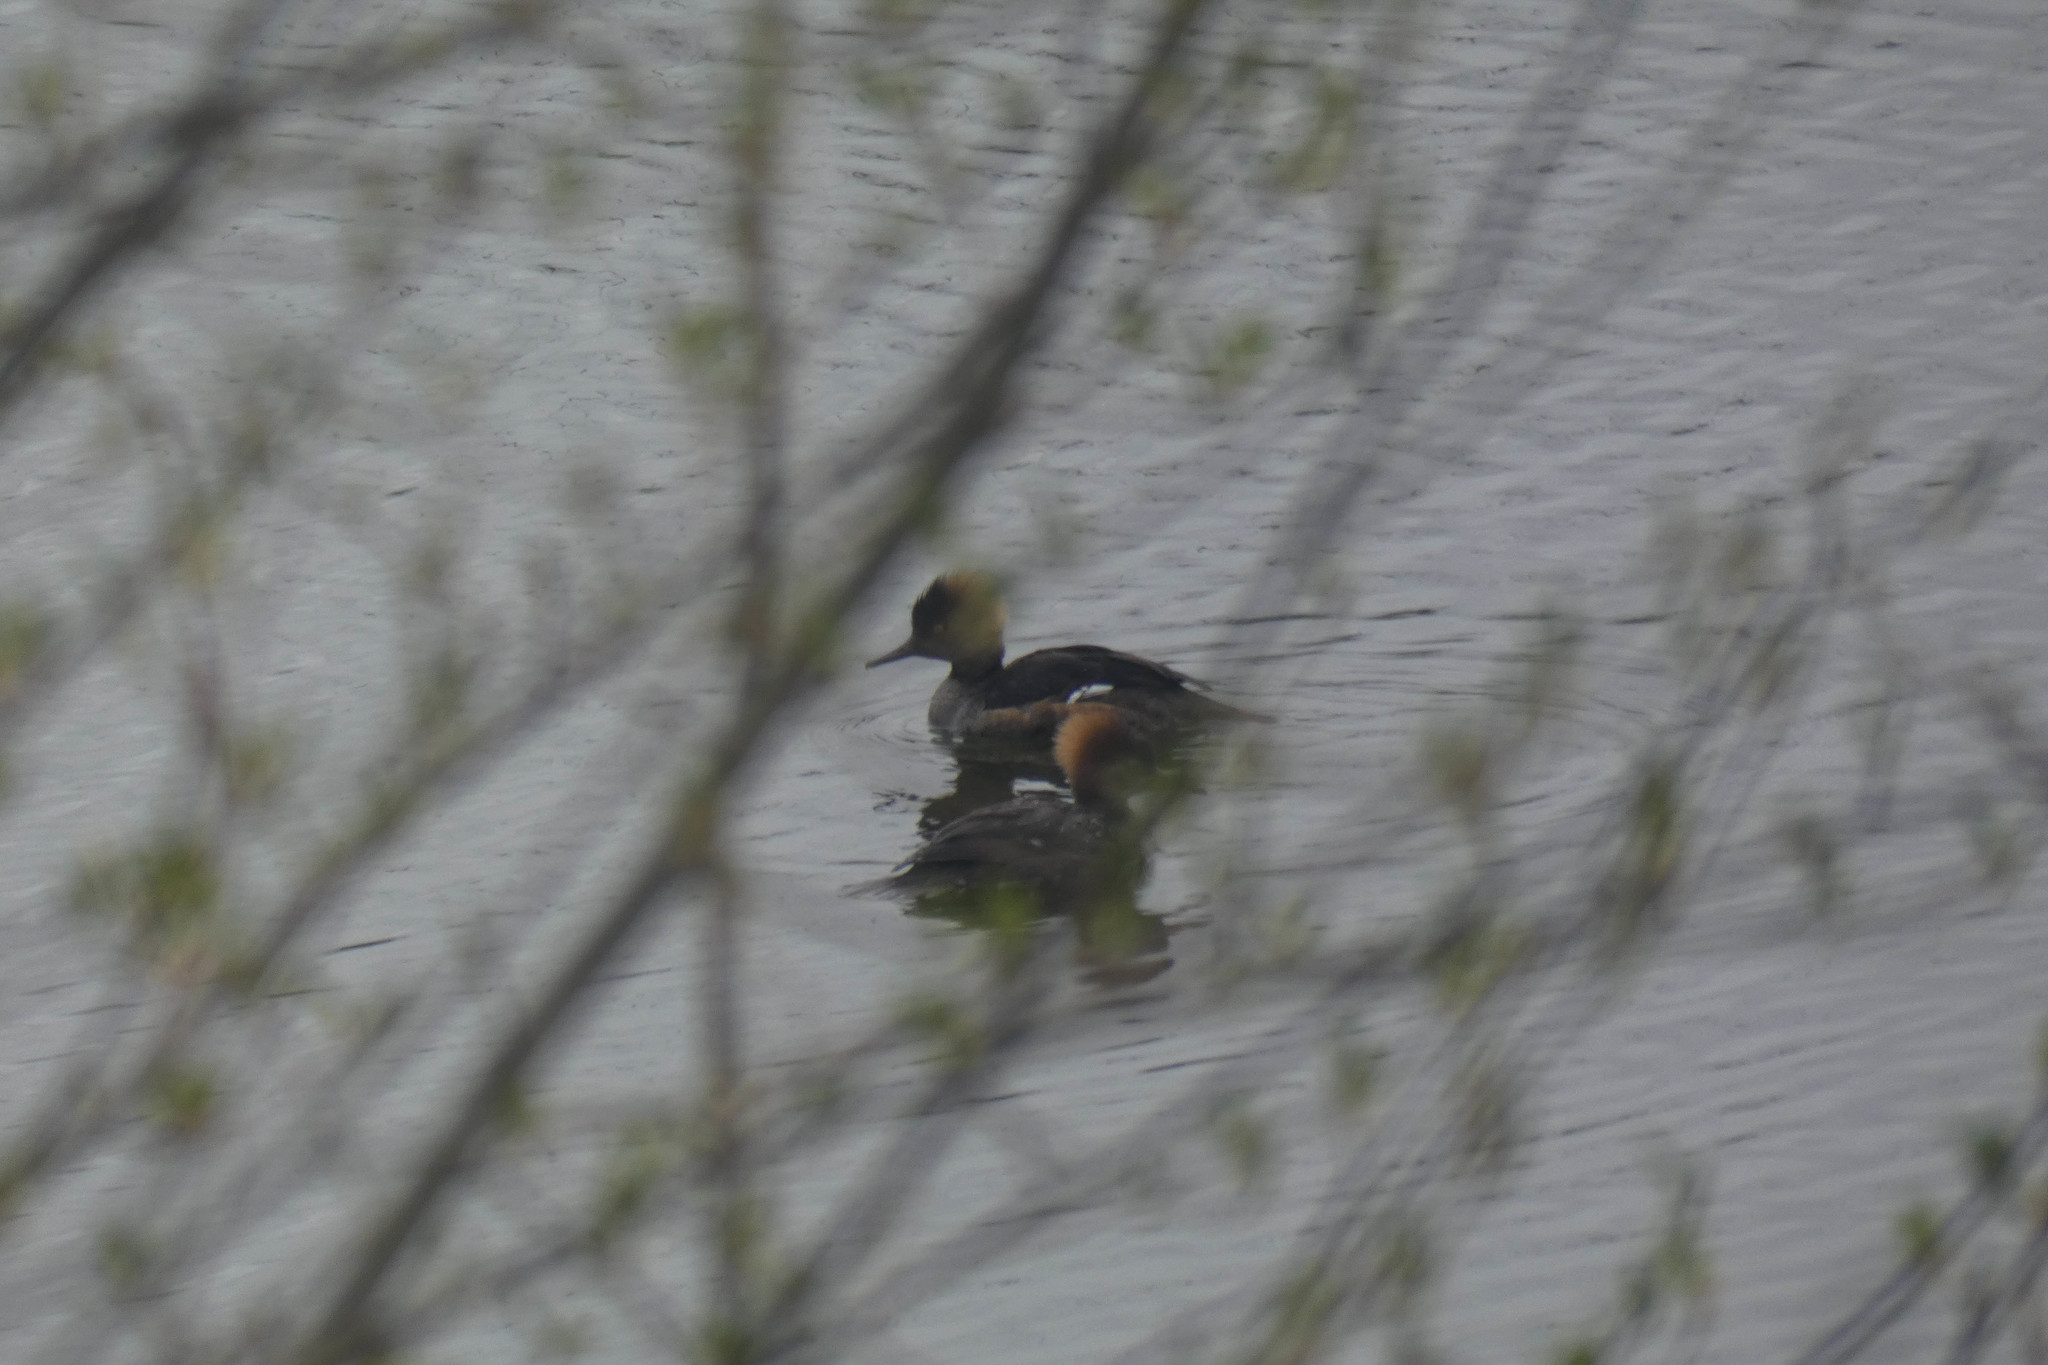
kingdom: Animalia
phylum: Chordata
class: Aves
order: Anseriformes
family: Anatidae
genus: Lophodytes
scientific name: Lophodytes cucullatus
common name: Hooded merganser
